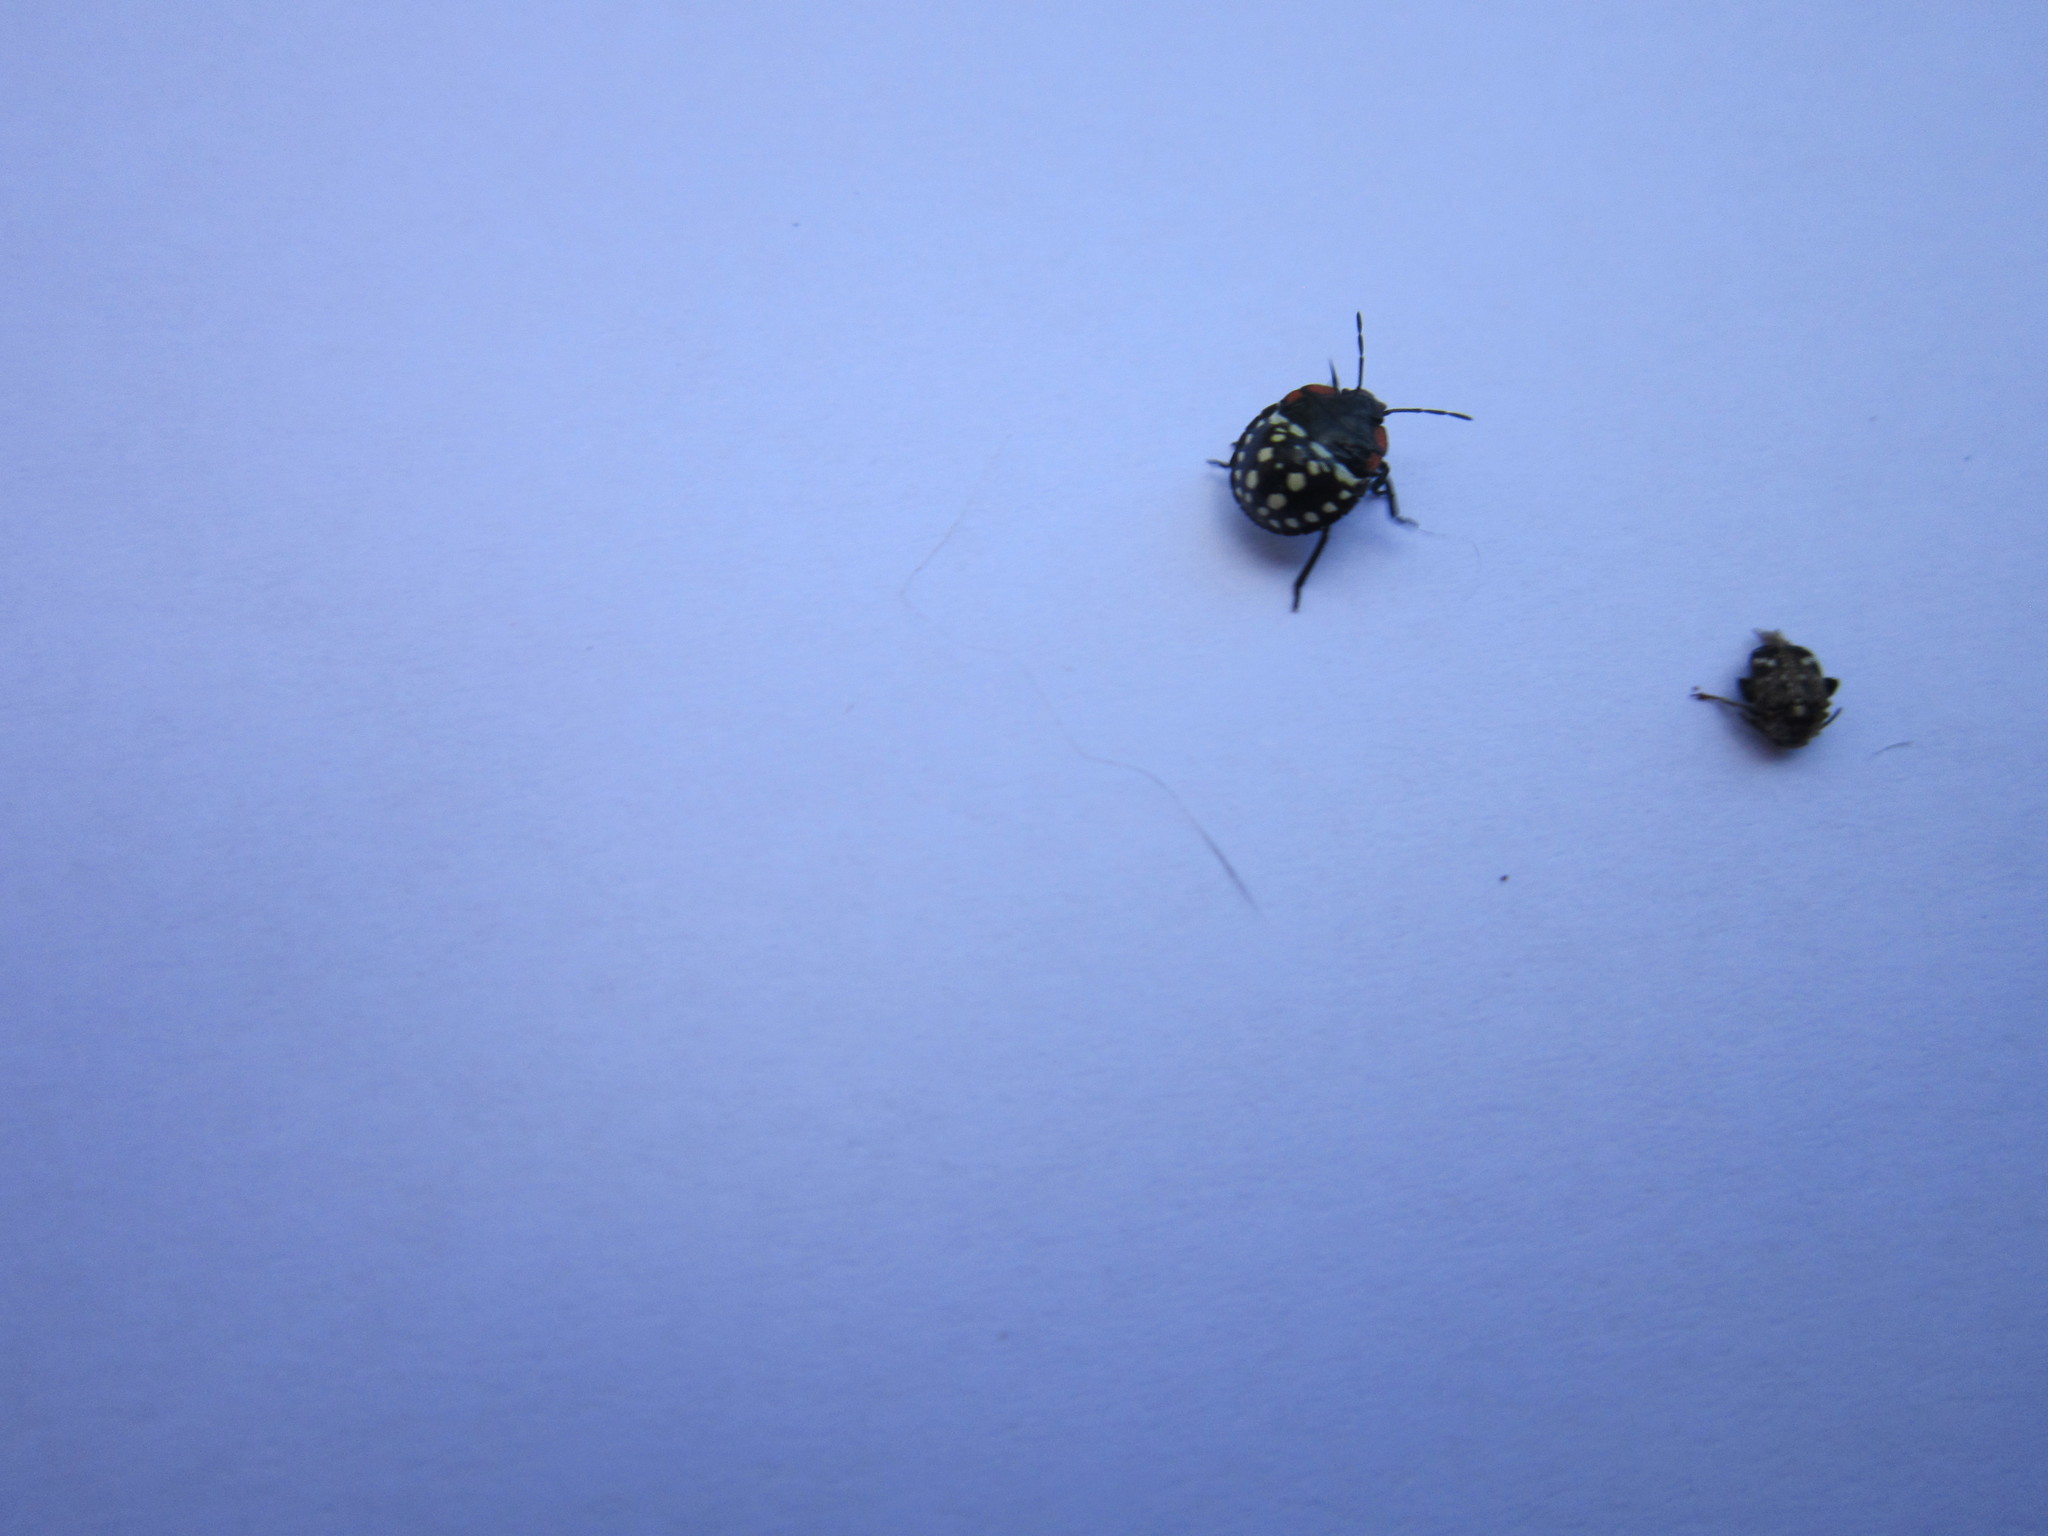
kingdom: Animalia
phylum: Arthropoda
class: Insecta
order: Hemiptera
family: Pentatomidae
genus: Nezara
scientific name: Nezara viridula
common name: Southern green stink bug
